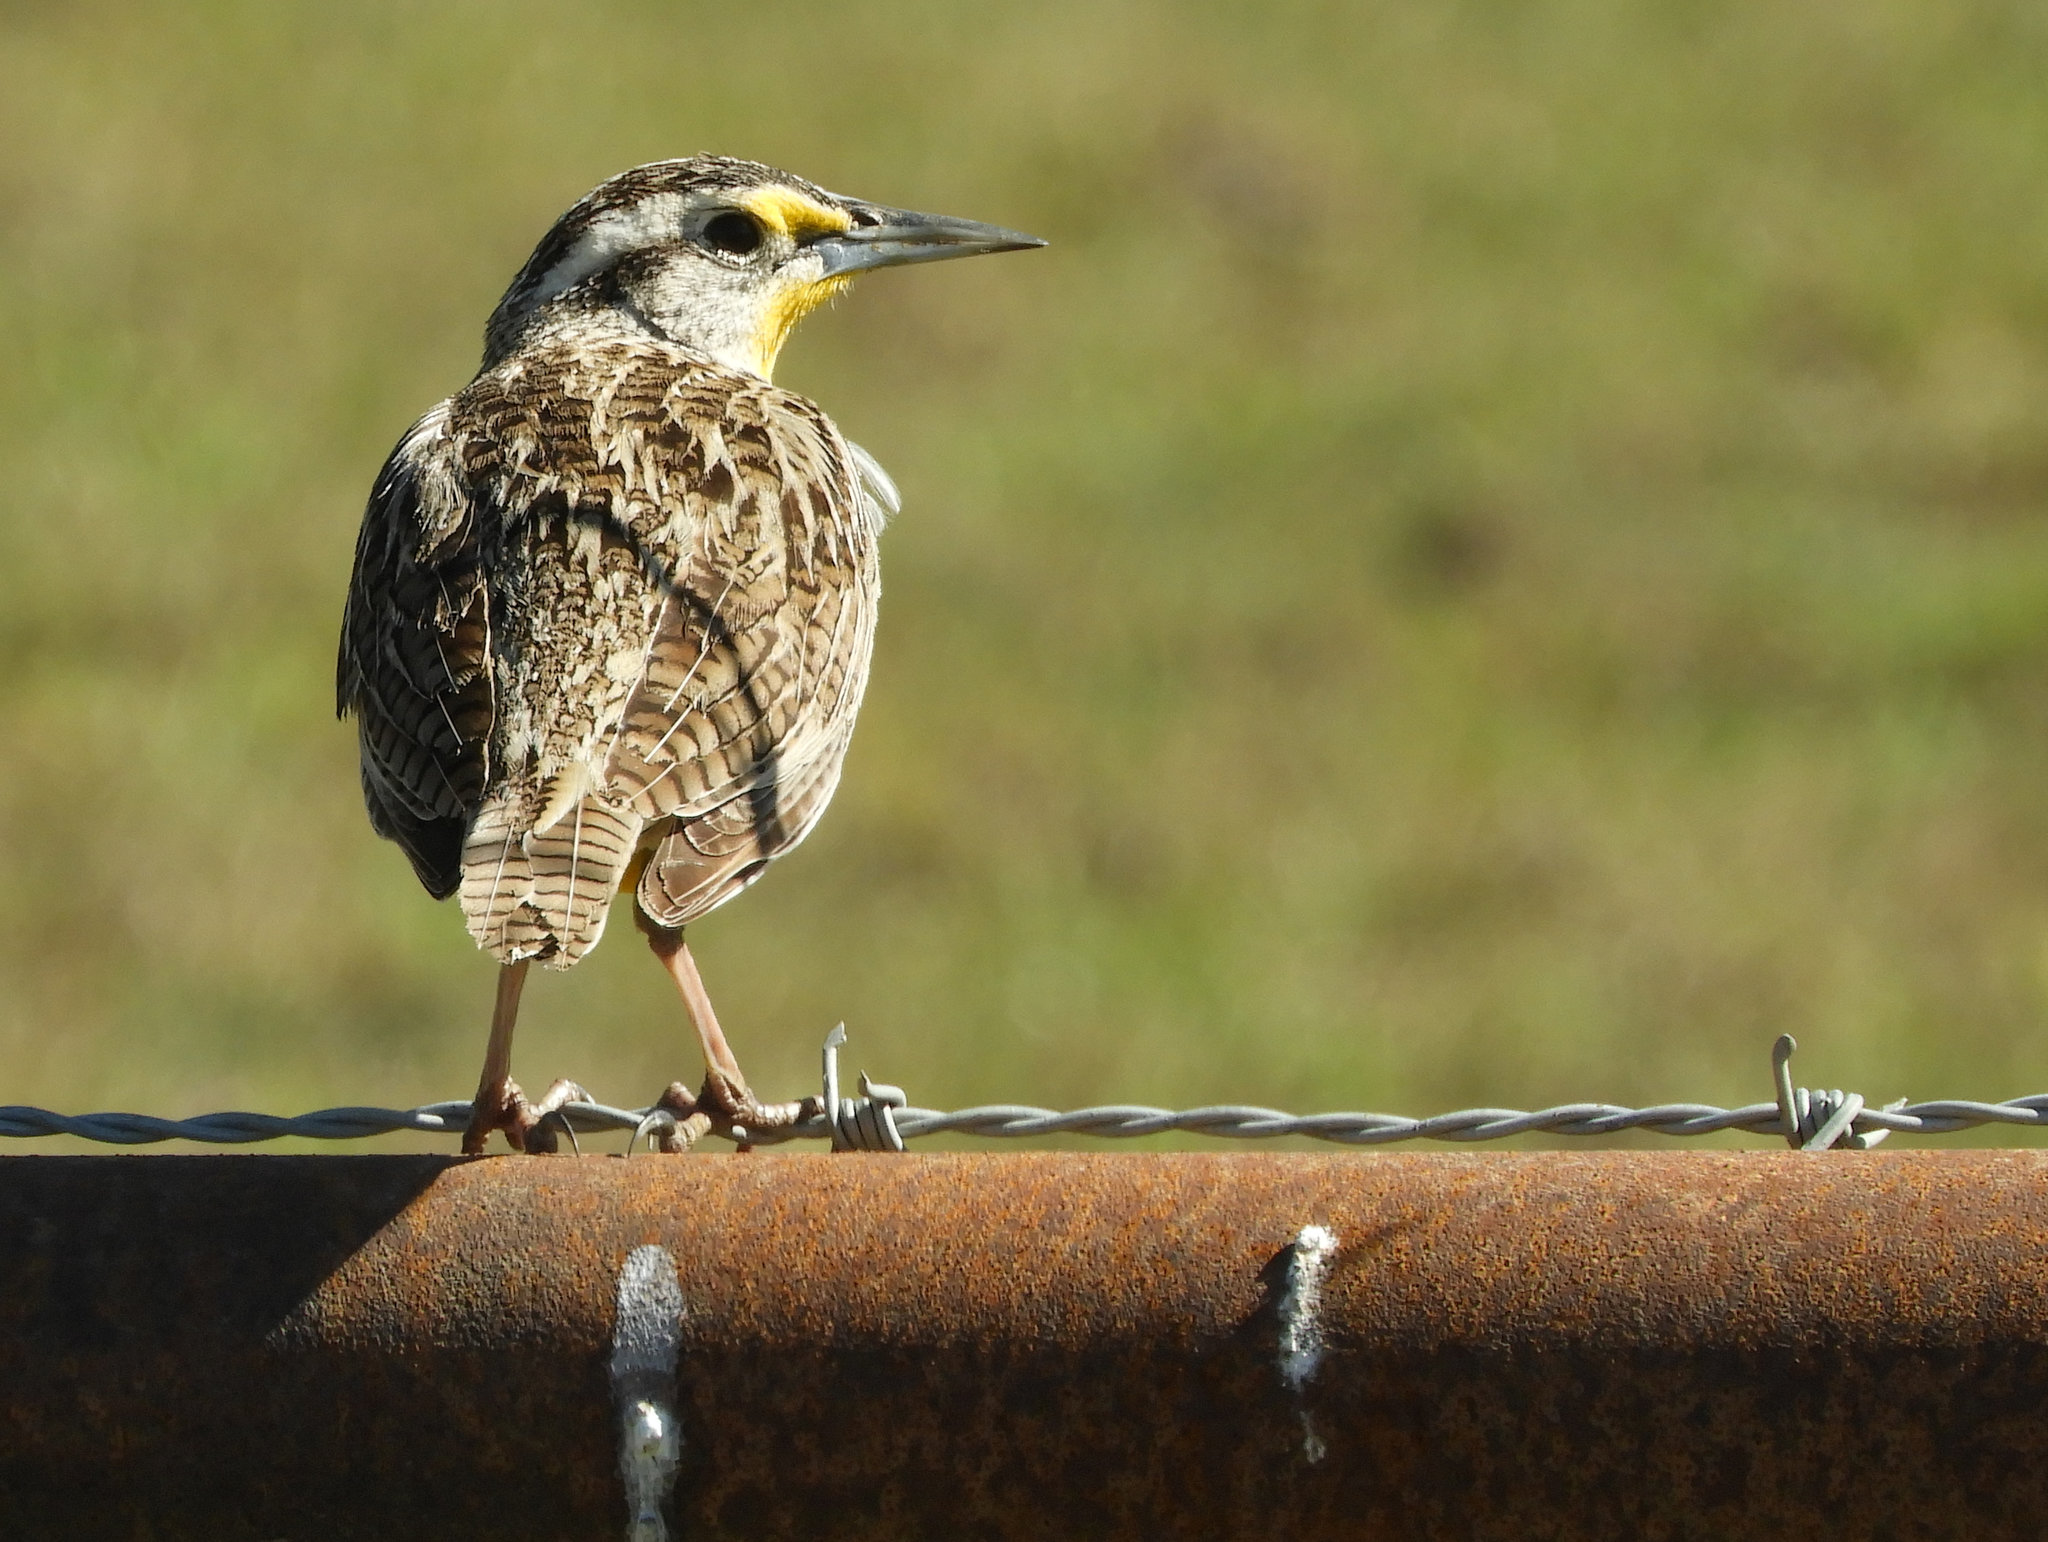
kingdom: Animalia
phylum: Chordata
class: Aves
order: Passeriformes
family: Icteridae
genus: Sturnella
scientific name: Sturnella neglecta
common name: Western meadowlark
